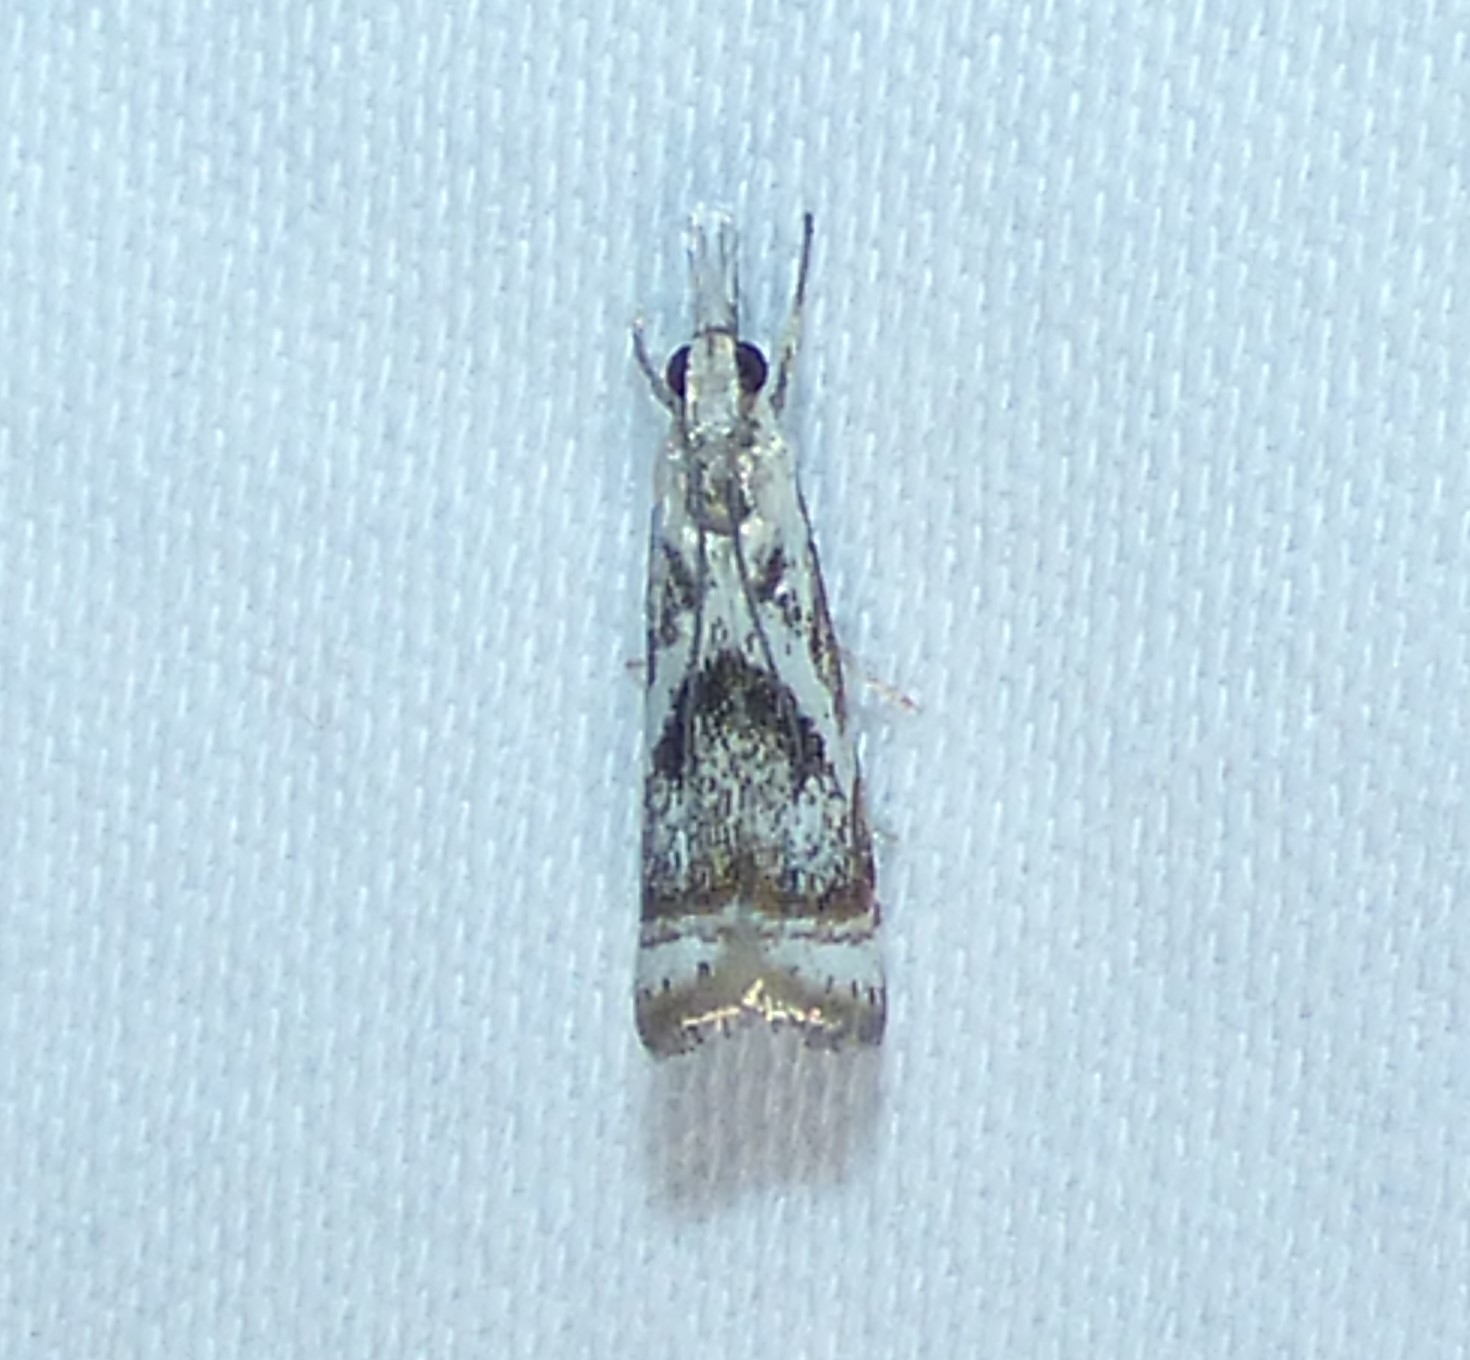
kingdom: Animalia
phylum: Arthropoda
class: Insecta
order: Lepidoptera
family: Crambidae
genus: Microcrambus
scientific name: Microcrambus elegans
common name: Elegant grass-veneer
